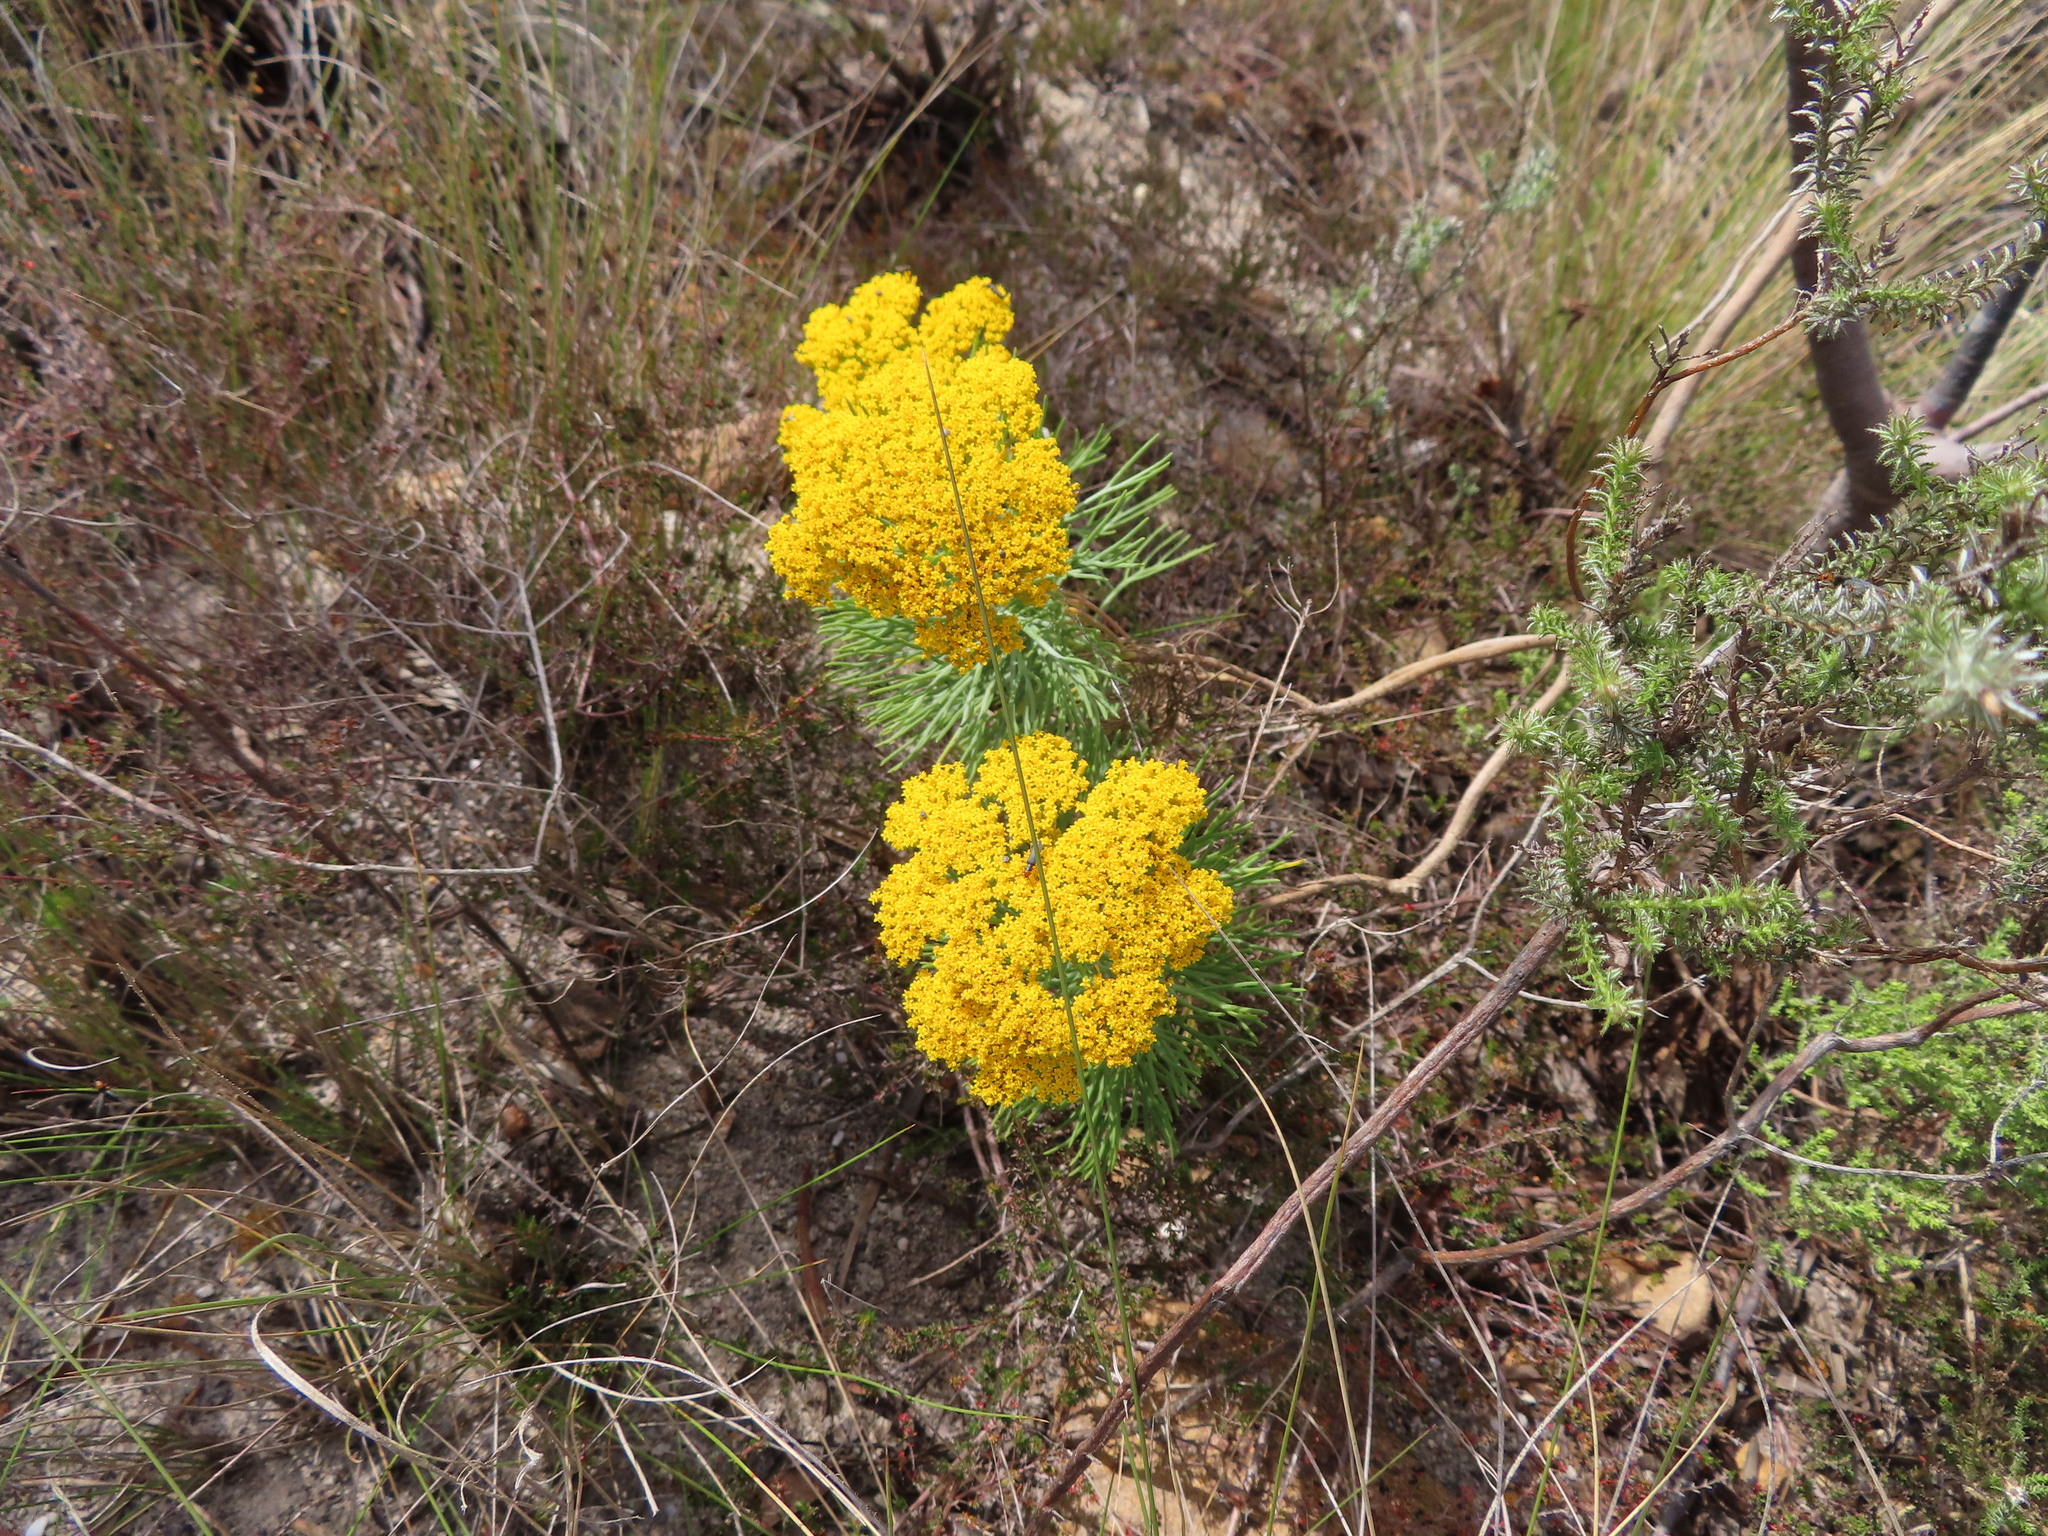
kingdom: Plantae
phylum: Tracheophyta
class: Magnoliopsida
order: Asterales
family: Asteraceae
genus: Hymenolepis
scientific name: Hymenolepis crithmifolia
